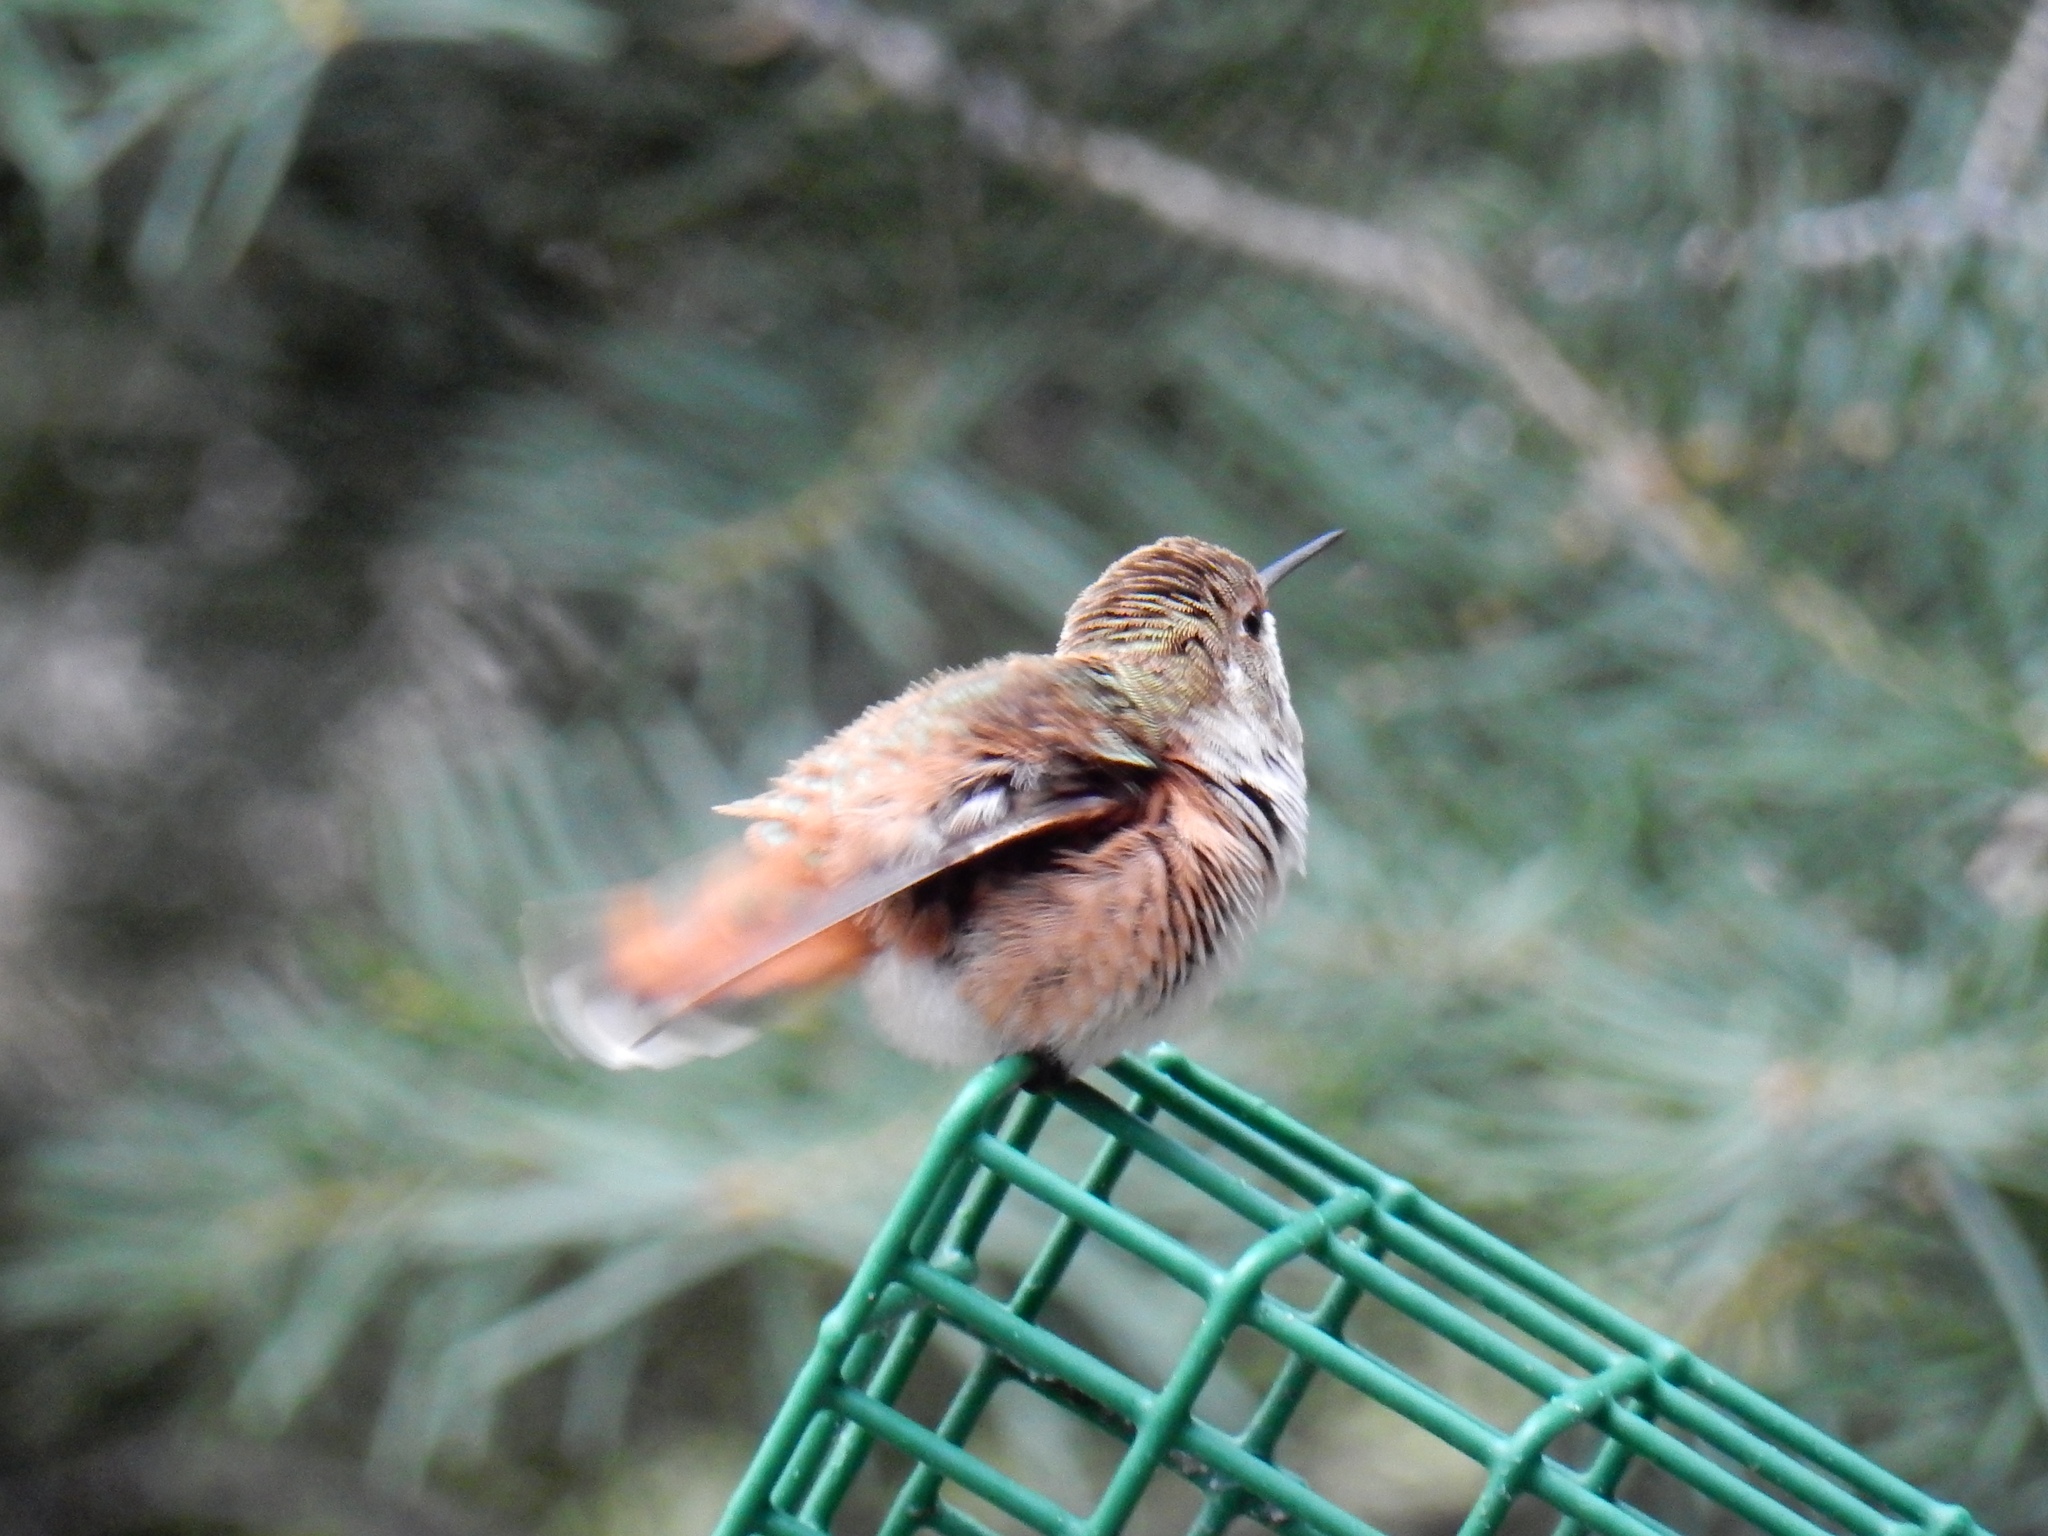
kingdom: Animalia
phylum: Chordata
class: Aves
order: Apodiformes
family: Trochilidae
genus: Selasphorus
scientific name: Selasphorus rufus
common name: Rufous hummingbird
